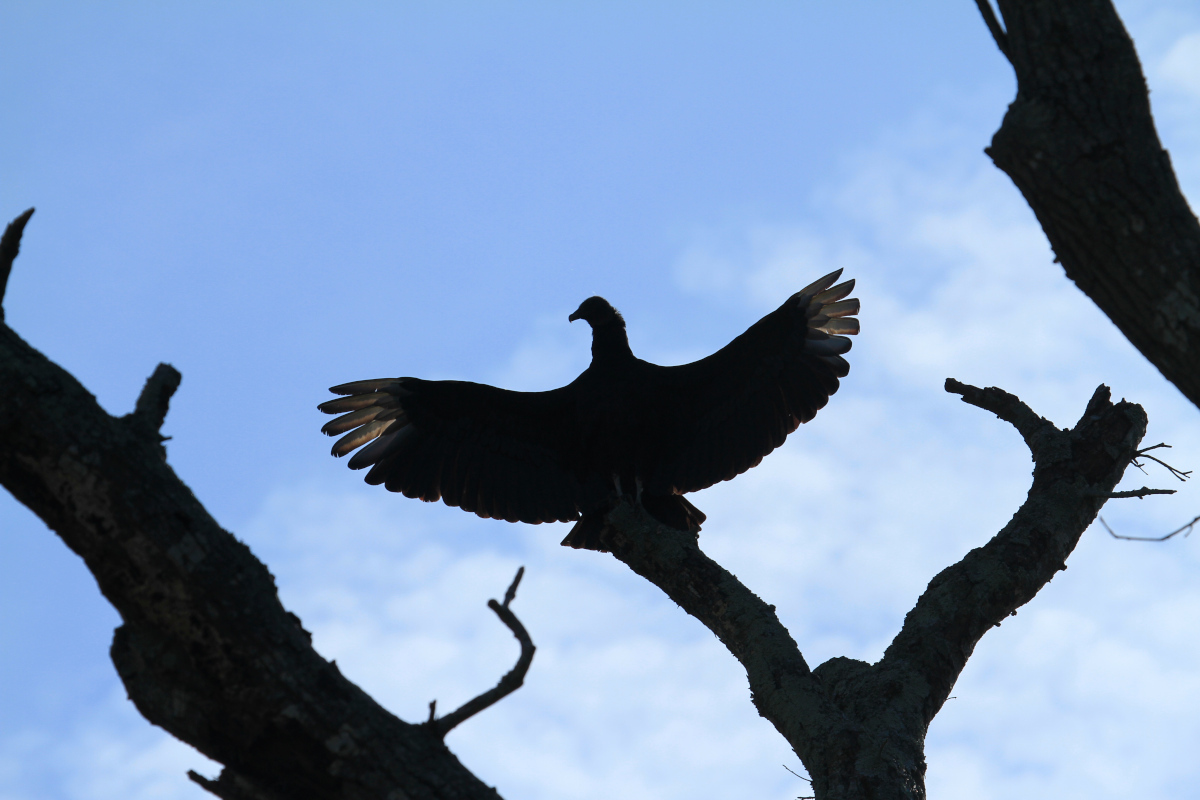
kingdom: Animalia
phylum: Chordata
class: Aves
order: Accipitriformes
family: Cathartidae
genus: Coragyps
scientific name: Coragyps atratus
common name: Black vulture
